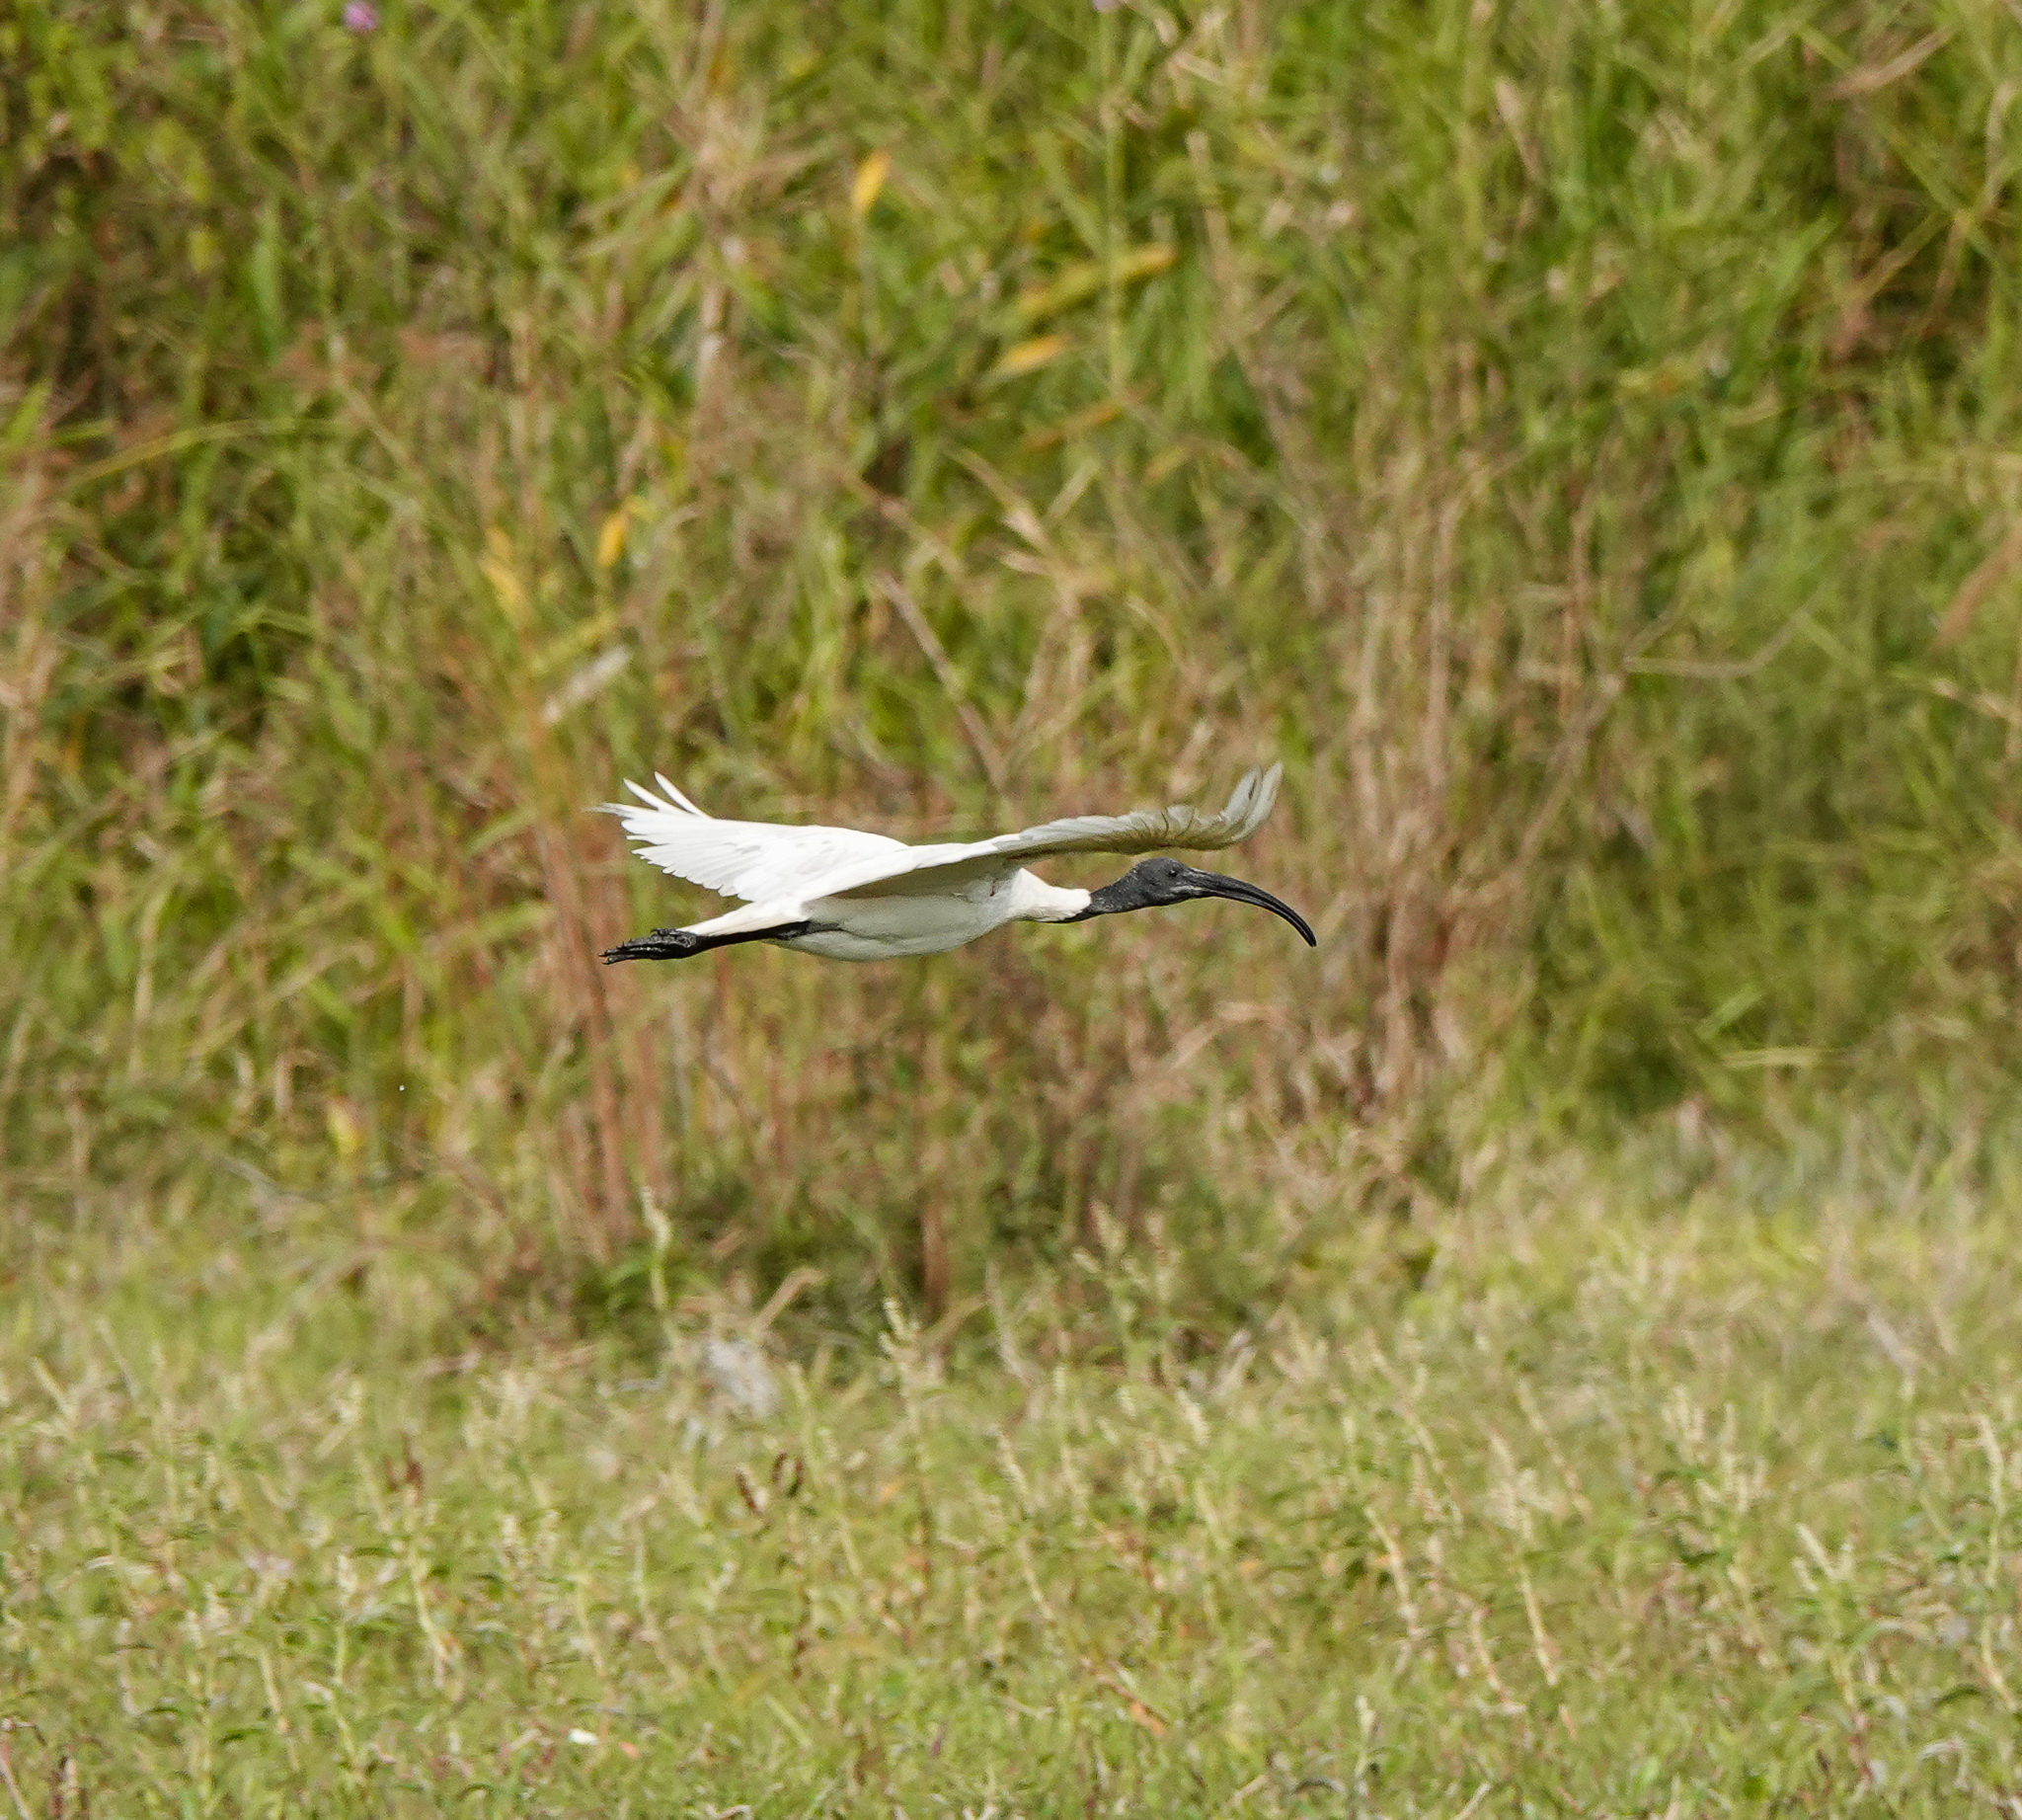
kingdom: Animalia
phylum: Chordata
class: Aves
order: Pelecaniformes
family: Threskiornithidae
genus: Threskiornis
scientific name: Threskiornis melanocephalus
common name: Black-headed ibis
